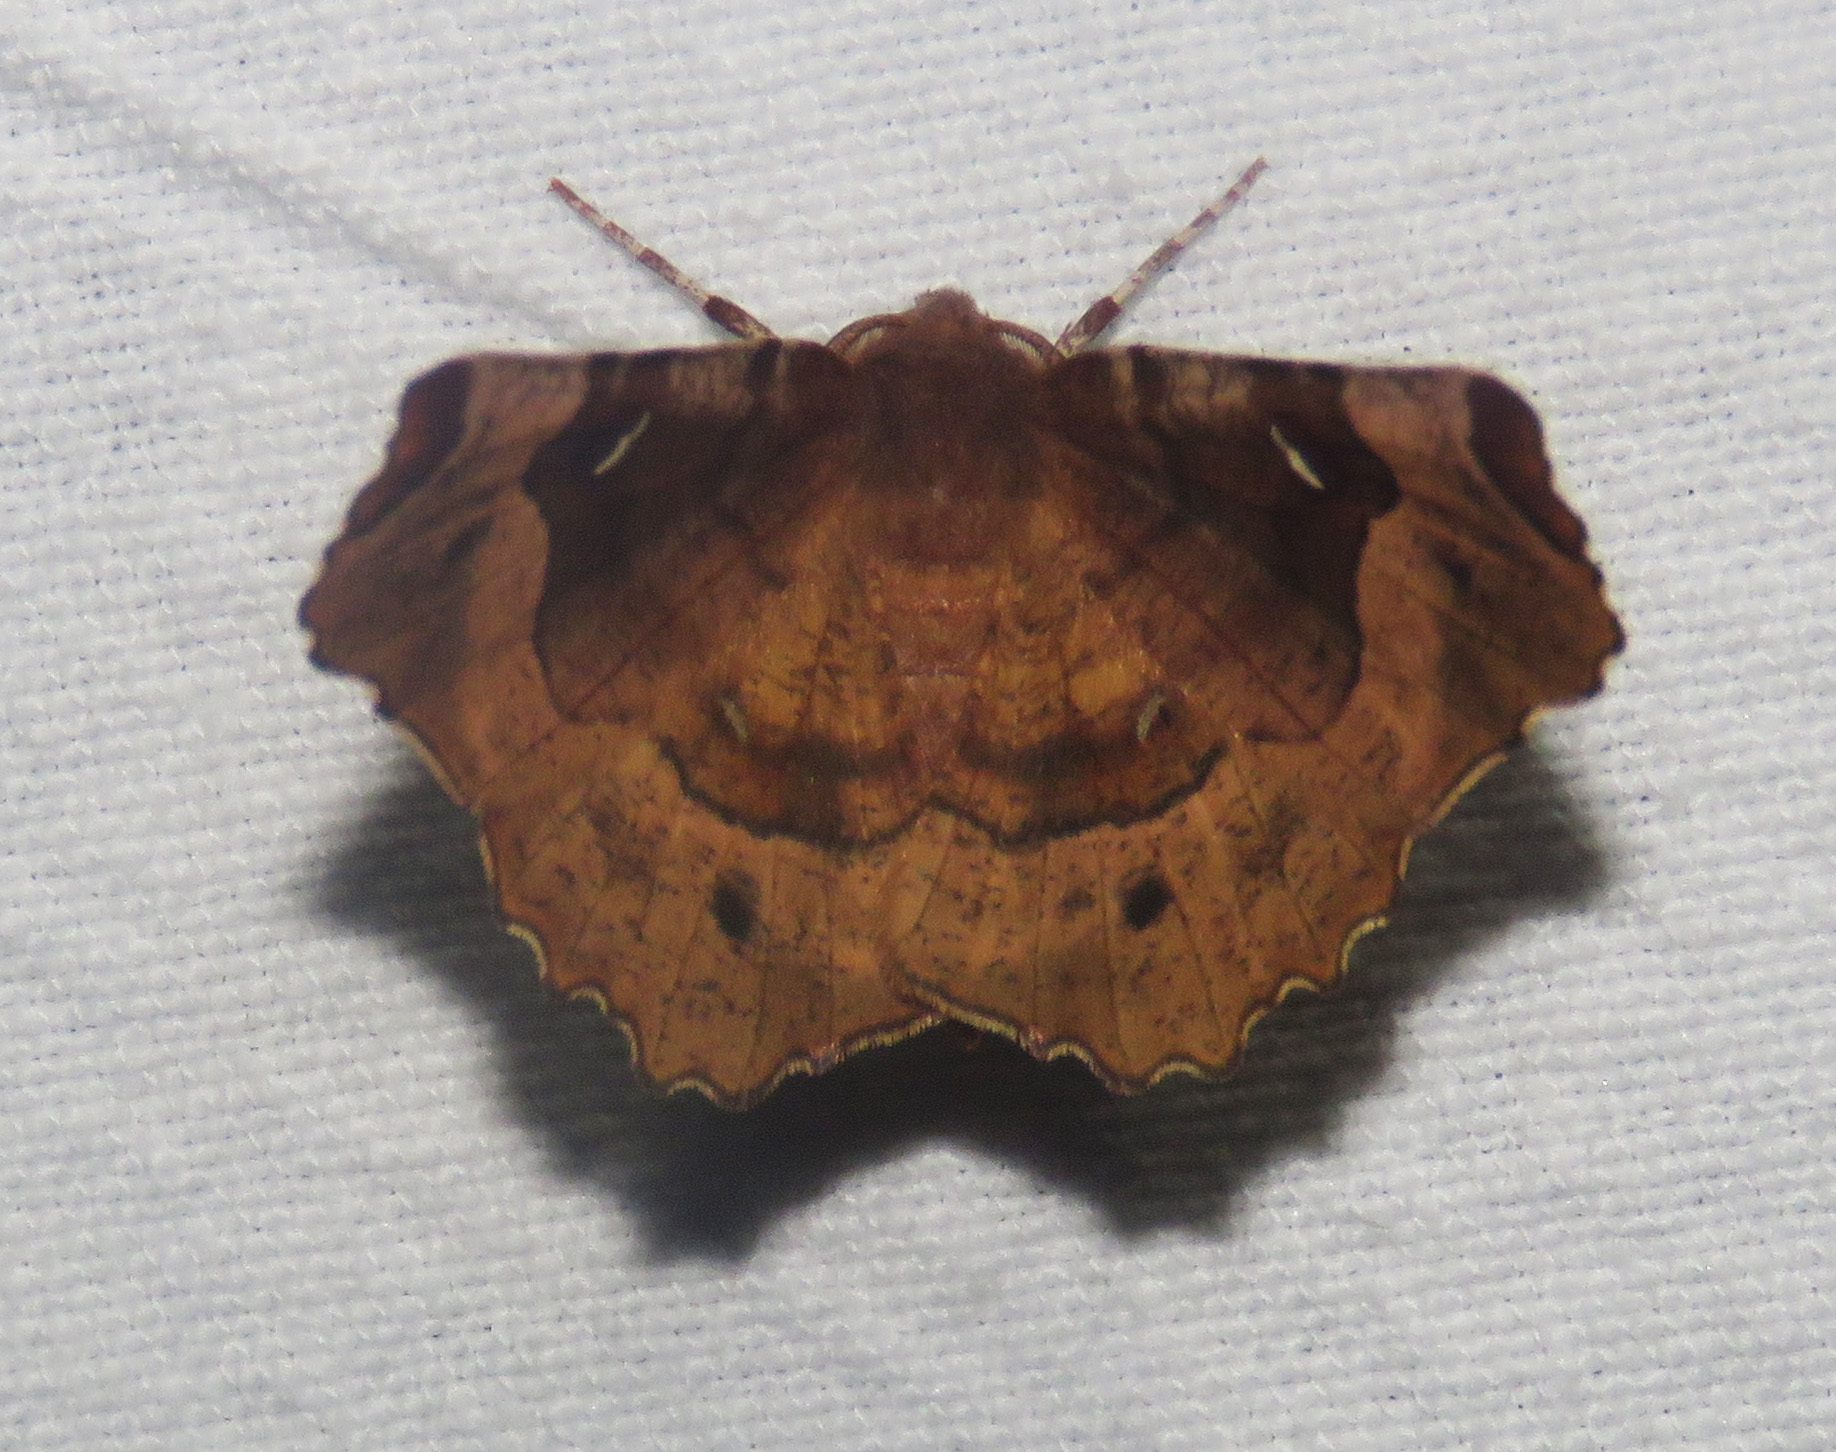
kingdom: Animalia
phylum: Arthropoda
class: Insecta
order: Lepidoptera
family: Geometridae
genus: Selenia
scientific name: Selenia tetralunaria
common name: Purple thorn
